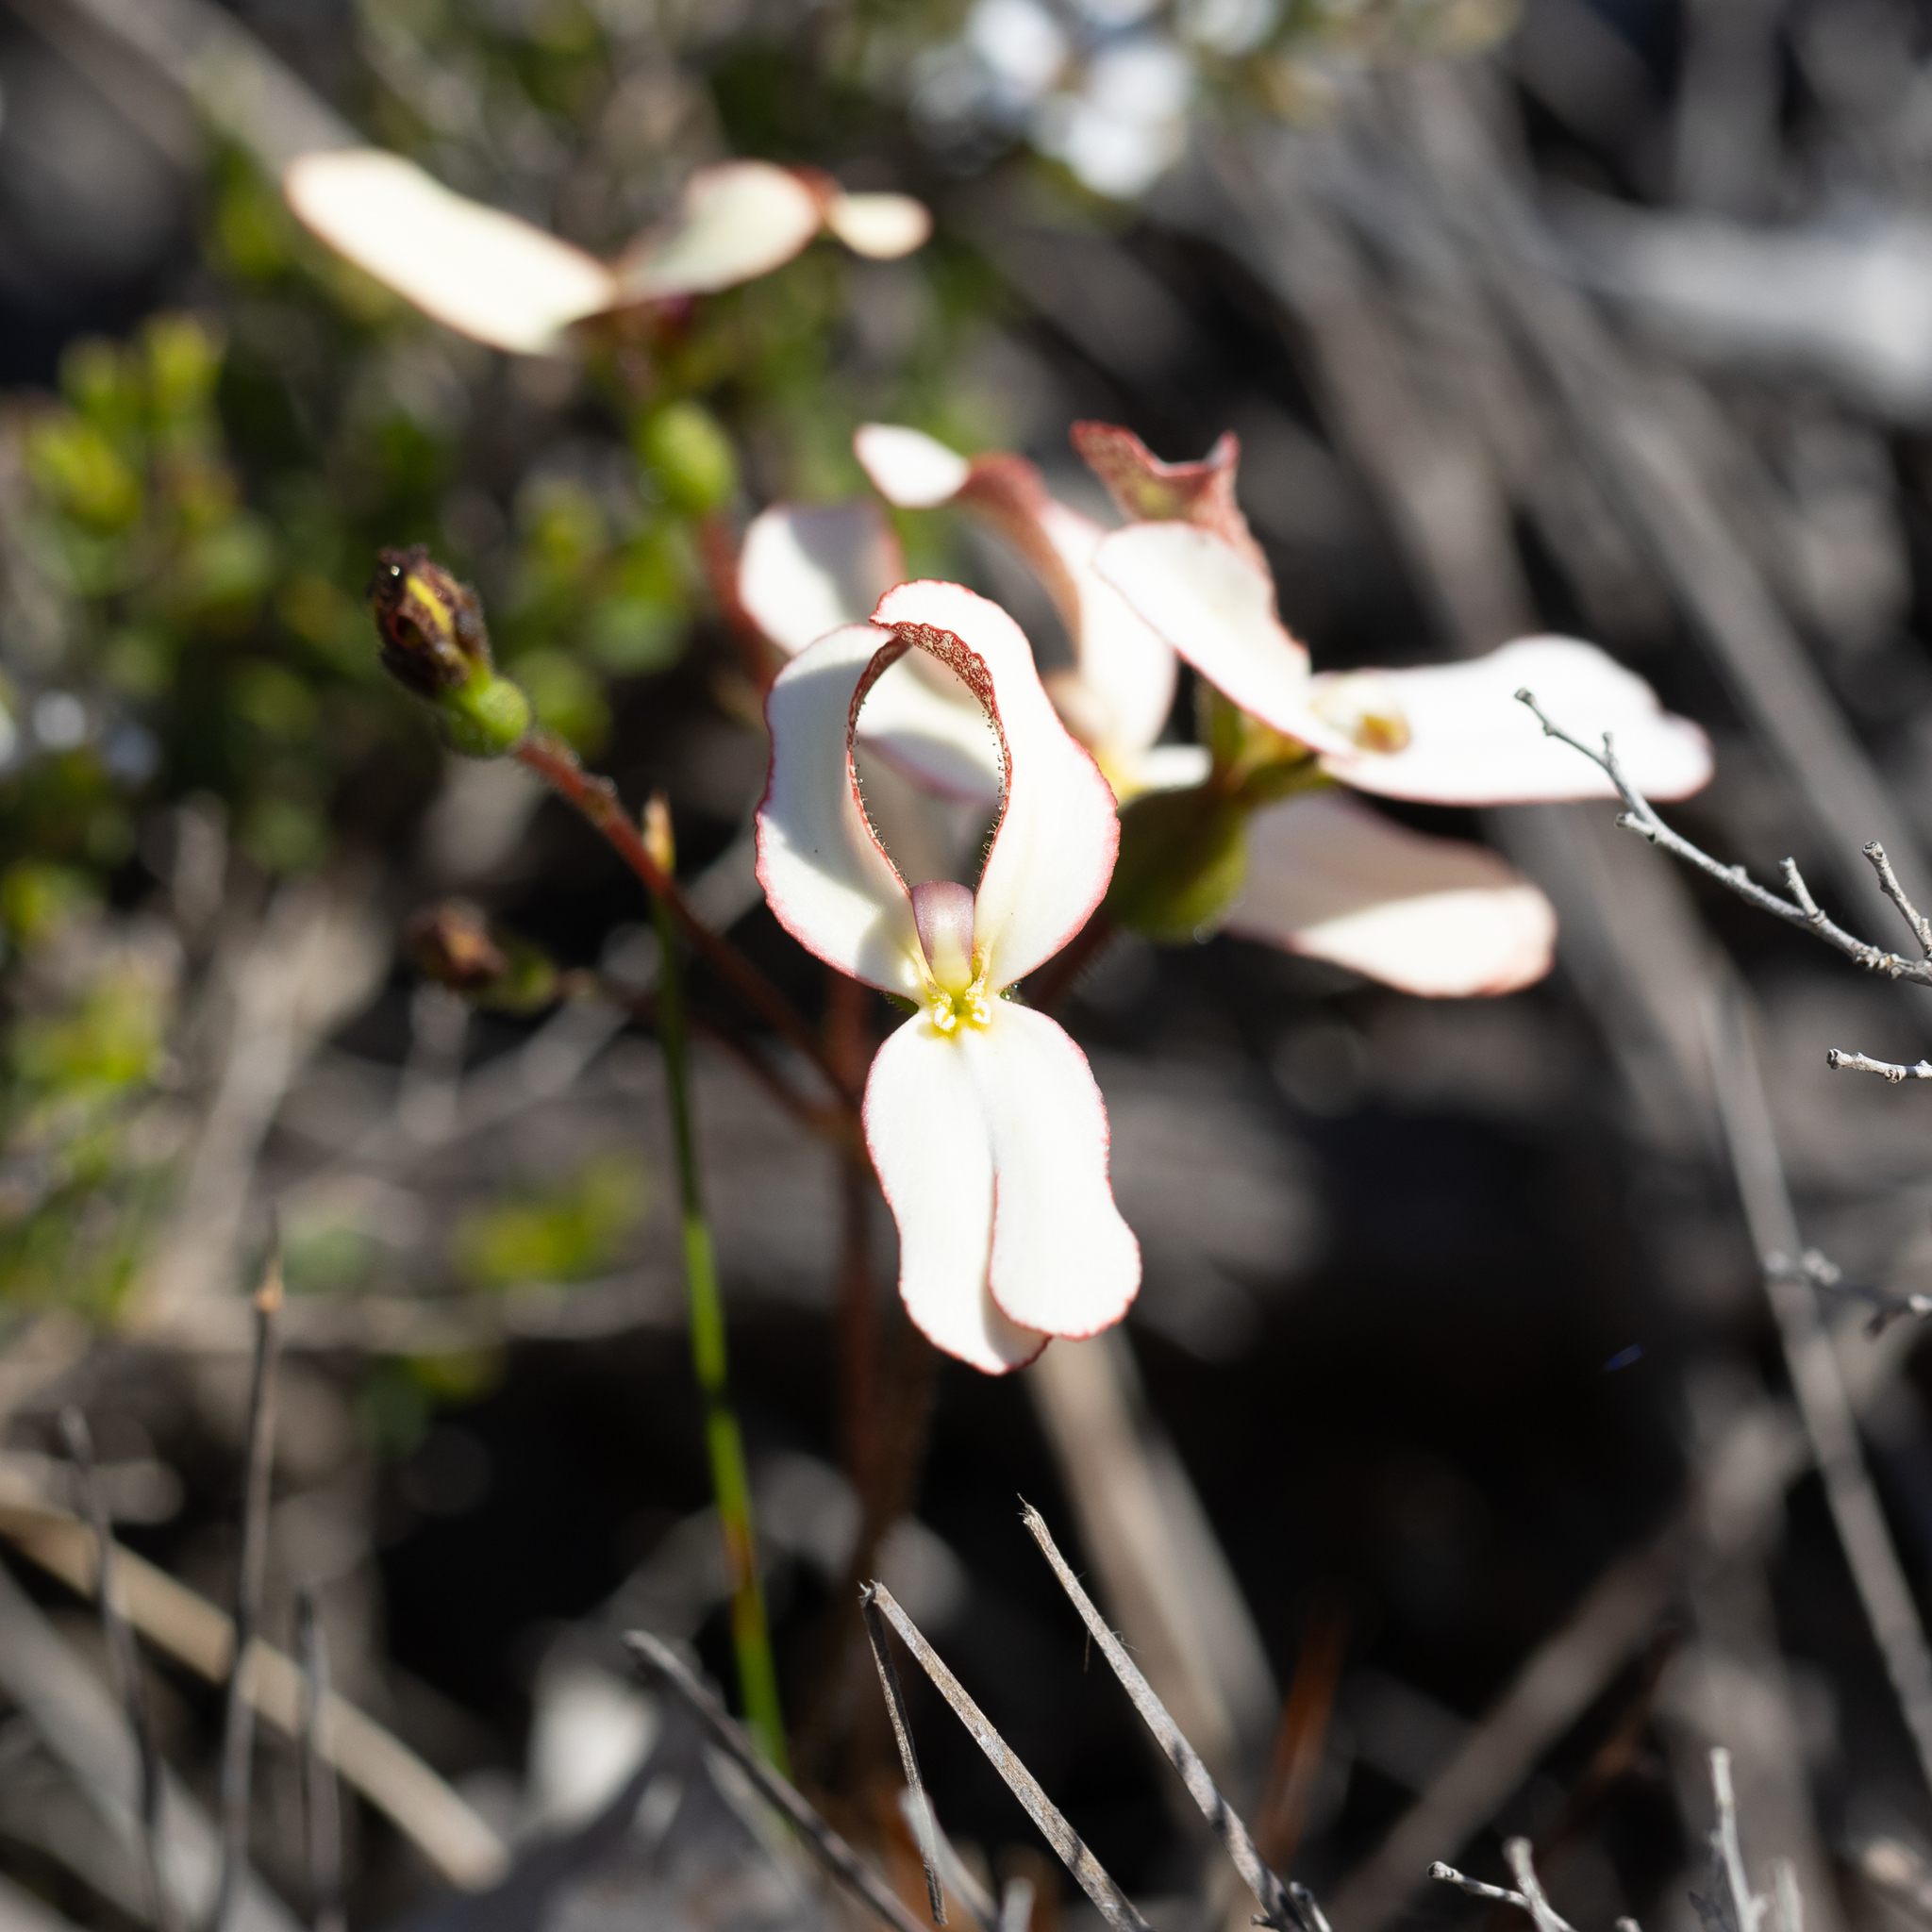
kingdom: Plantae
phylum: Tracheophyta
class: Magnoliopsida
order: Asterales
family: Stylidiaceae
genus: Stylidium
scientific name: Stylidium schoenoides
